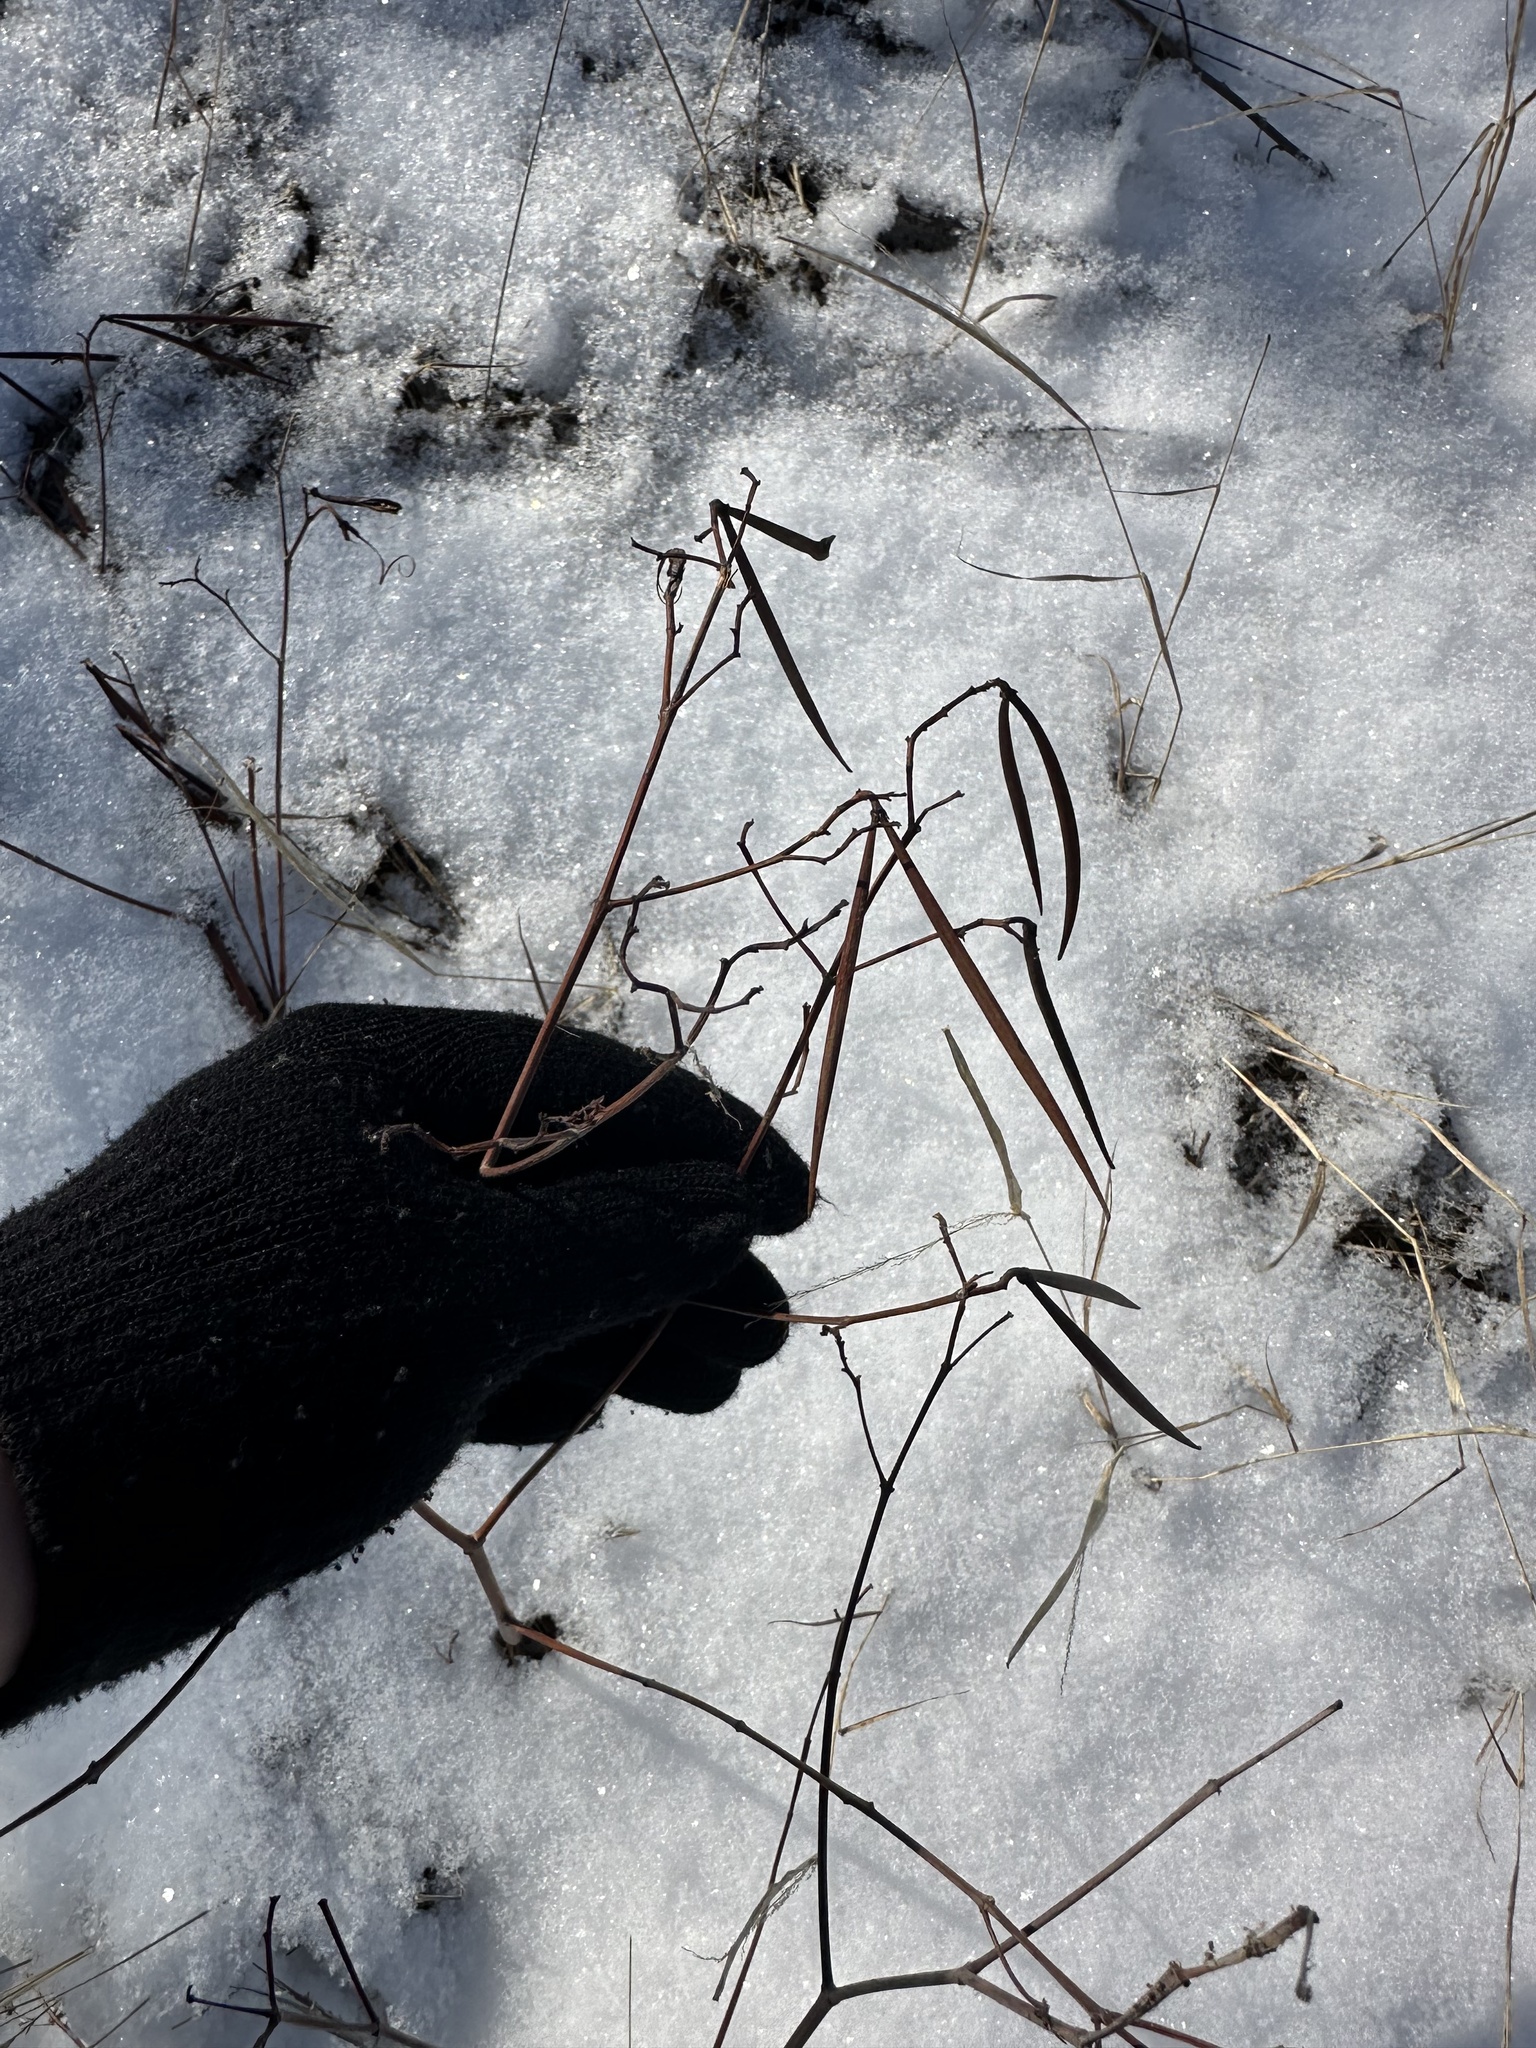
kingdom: Plantae
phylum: Tracheophyta
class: Magnoliopsida
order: Gentianales
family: Apocynaceae
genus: Apocynum
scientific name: Apocynum androsaemifolium
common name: Spreading dogbane
